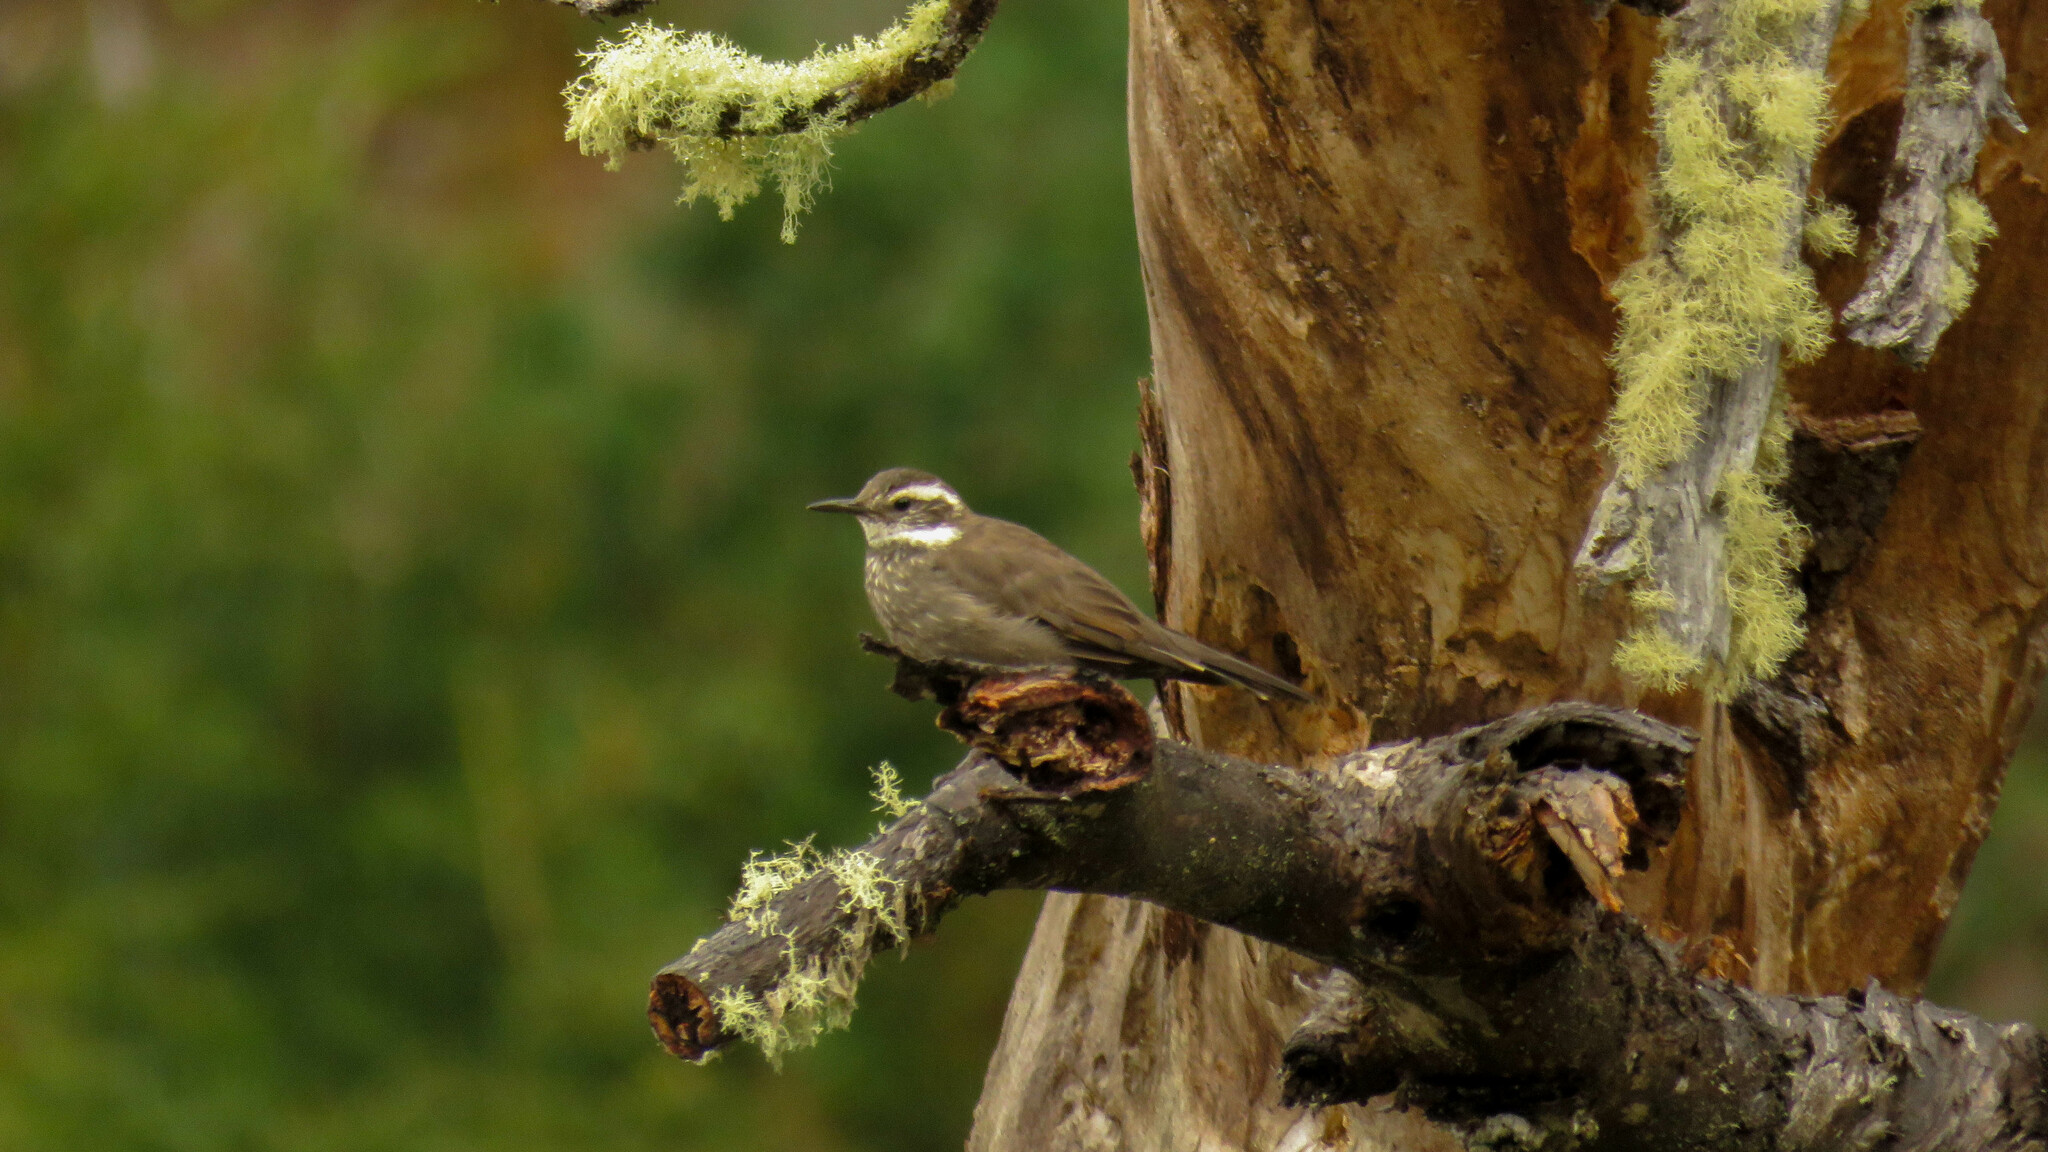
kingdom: Animalia
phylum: Chordata
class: Aves
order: Passeriformes
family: Furnariidae
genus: Cinclodes
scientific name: Cinclodes patagonicus
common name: Dark-bellied cinclodes
